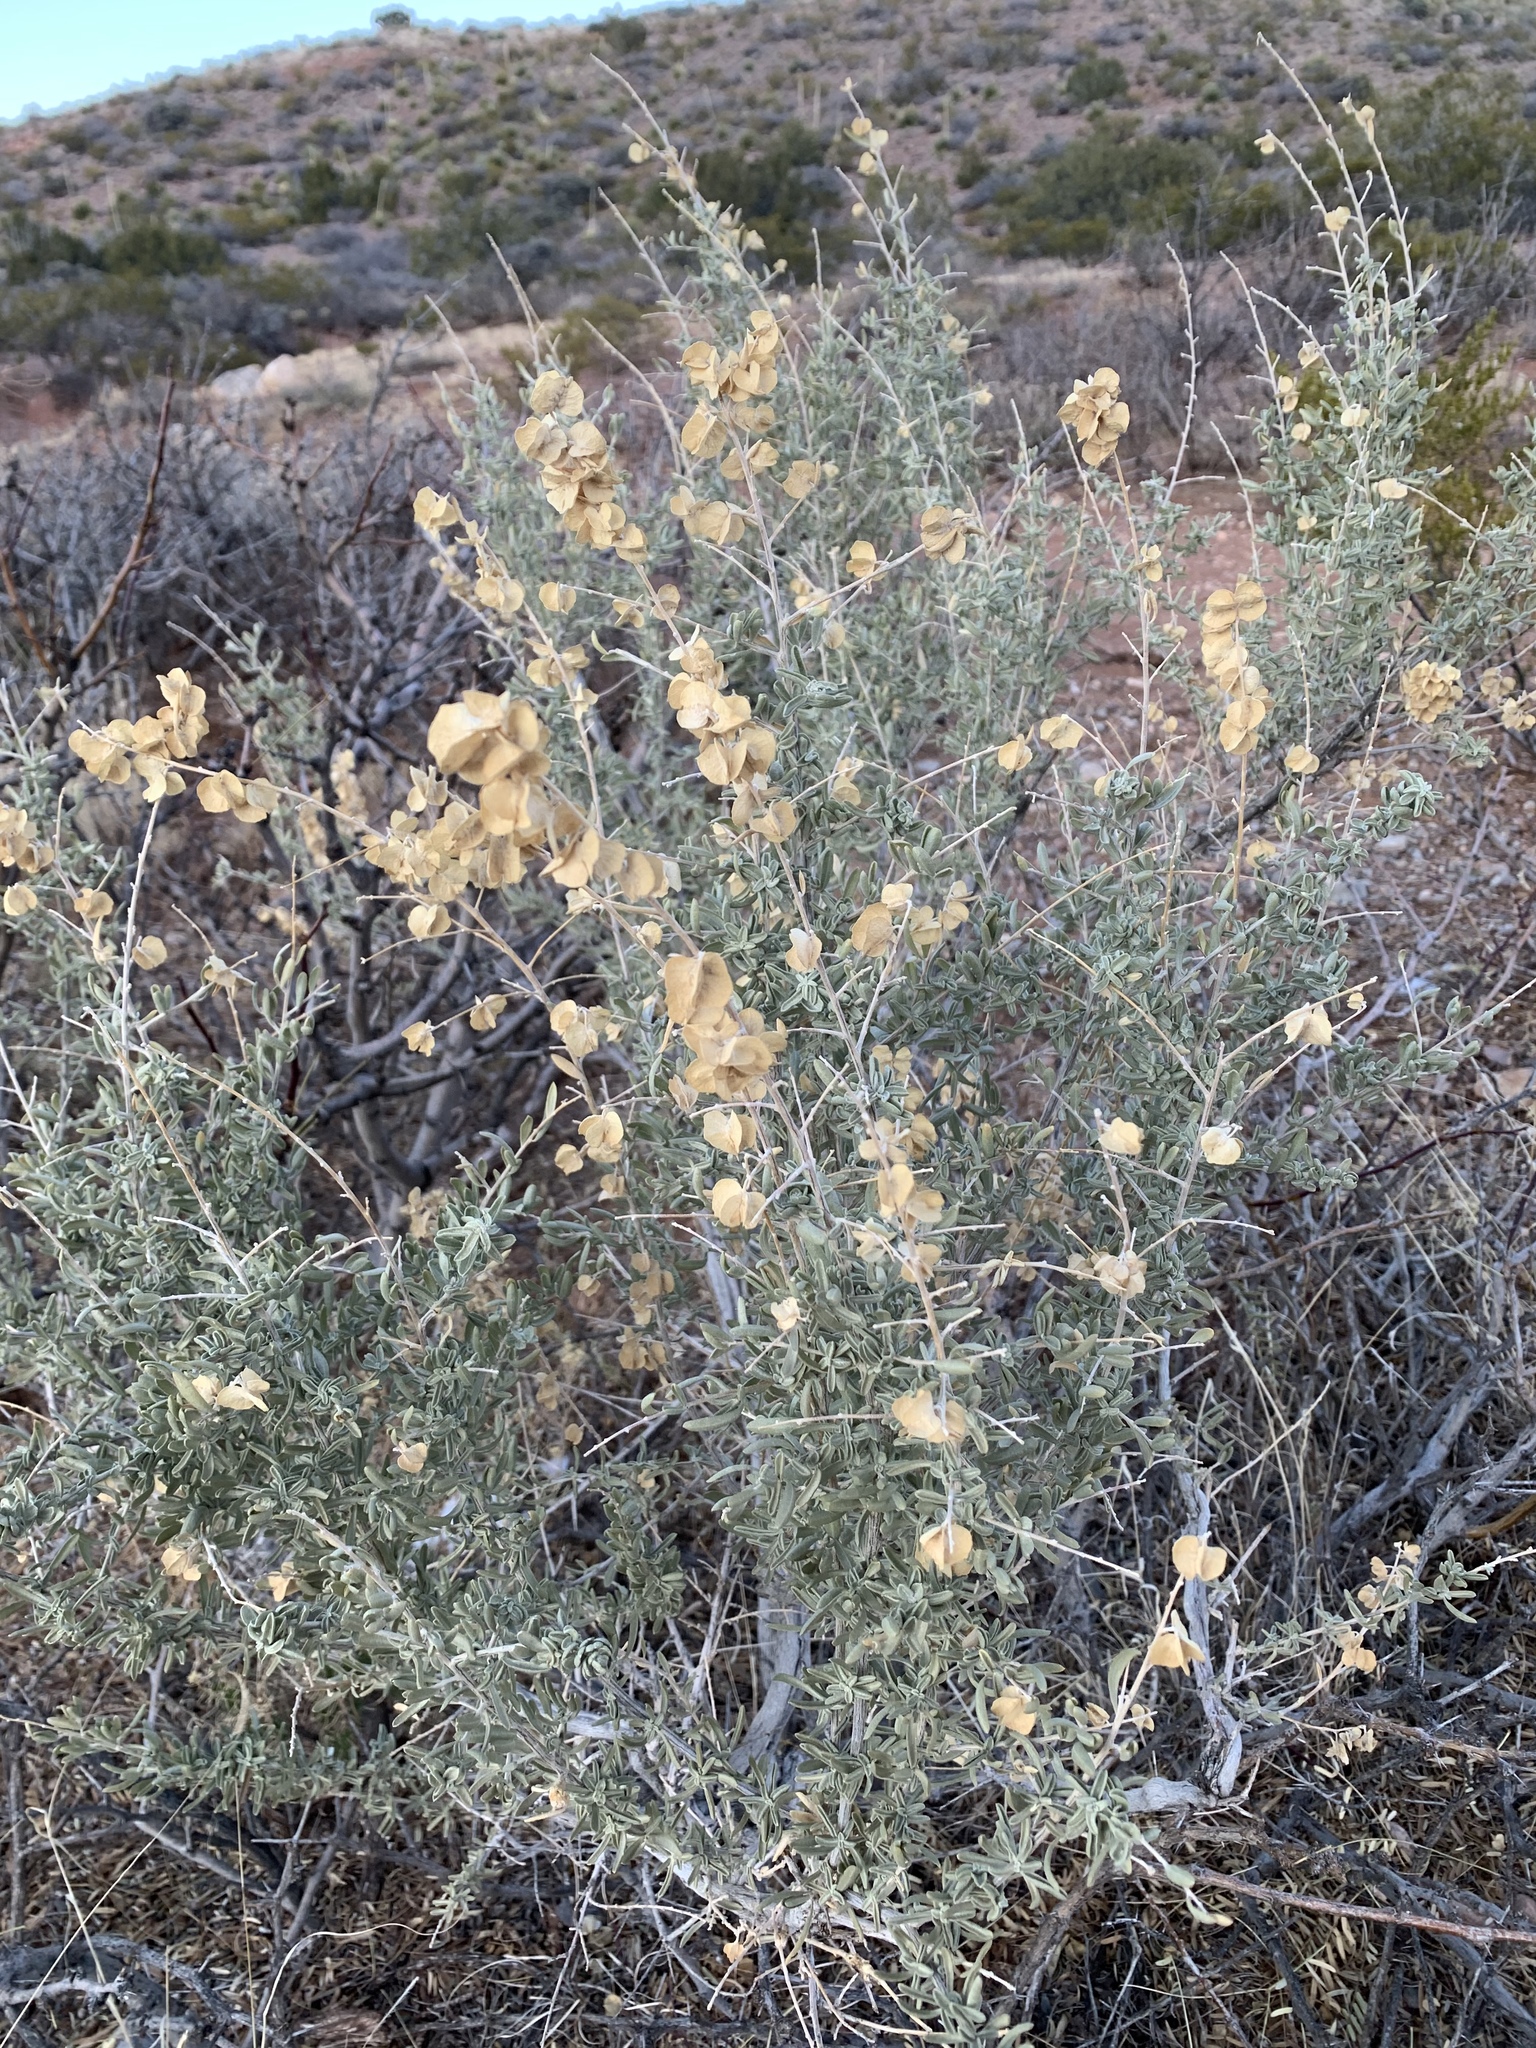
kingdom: Plantae
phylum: Tracheophyta
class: Magnoliopsida
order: Caryophyllales
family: Amaranthaceae
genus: Atriplex
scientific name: Atriplex canescens
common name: Four-wing saltbush
